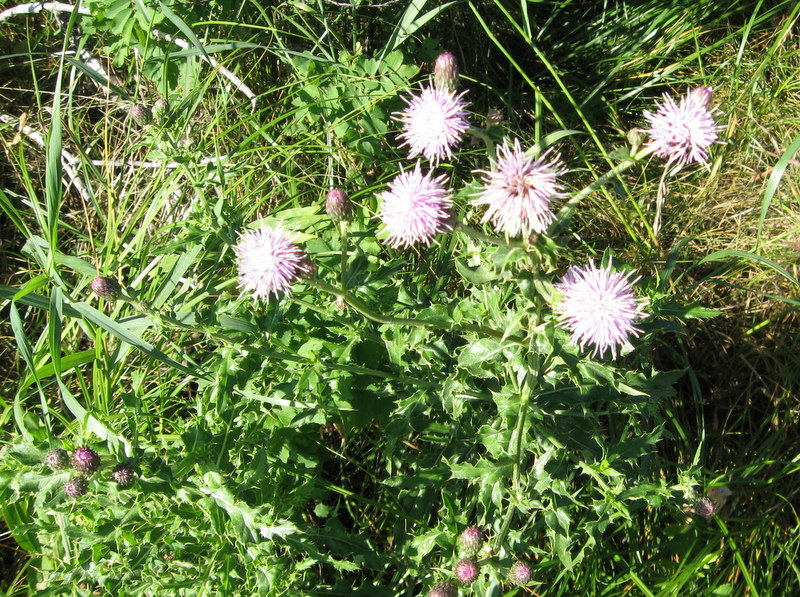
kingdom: Plantae
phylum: Tracheophyta
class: Magnoliopsida
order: Asterales
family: Asteraceae
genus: Cirsium
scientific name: Cirsium arvense
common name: Creeping thistle
